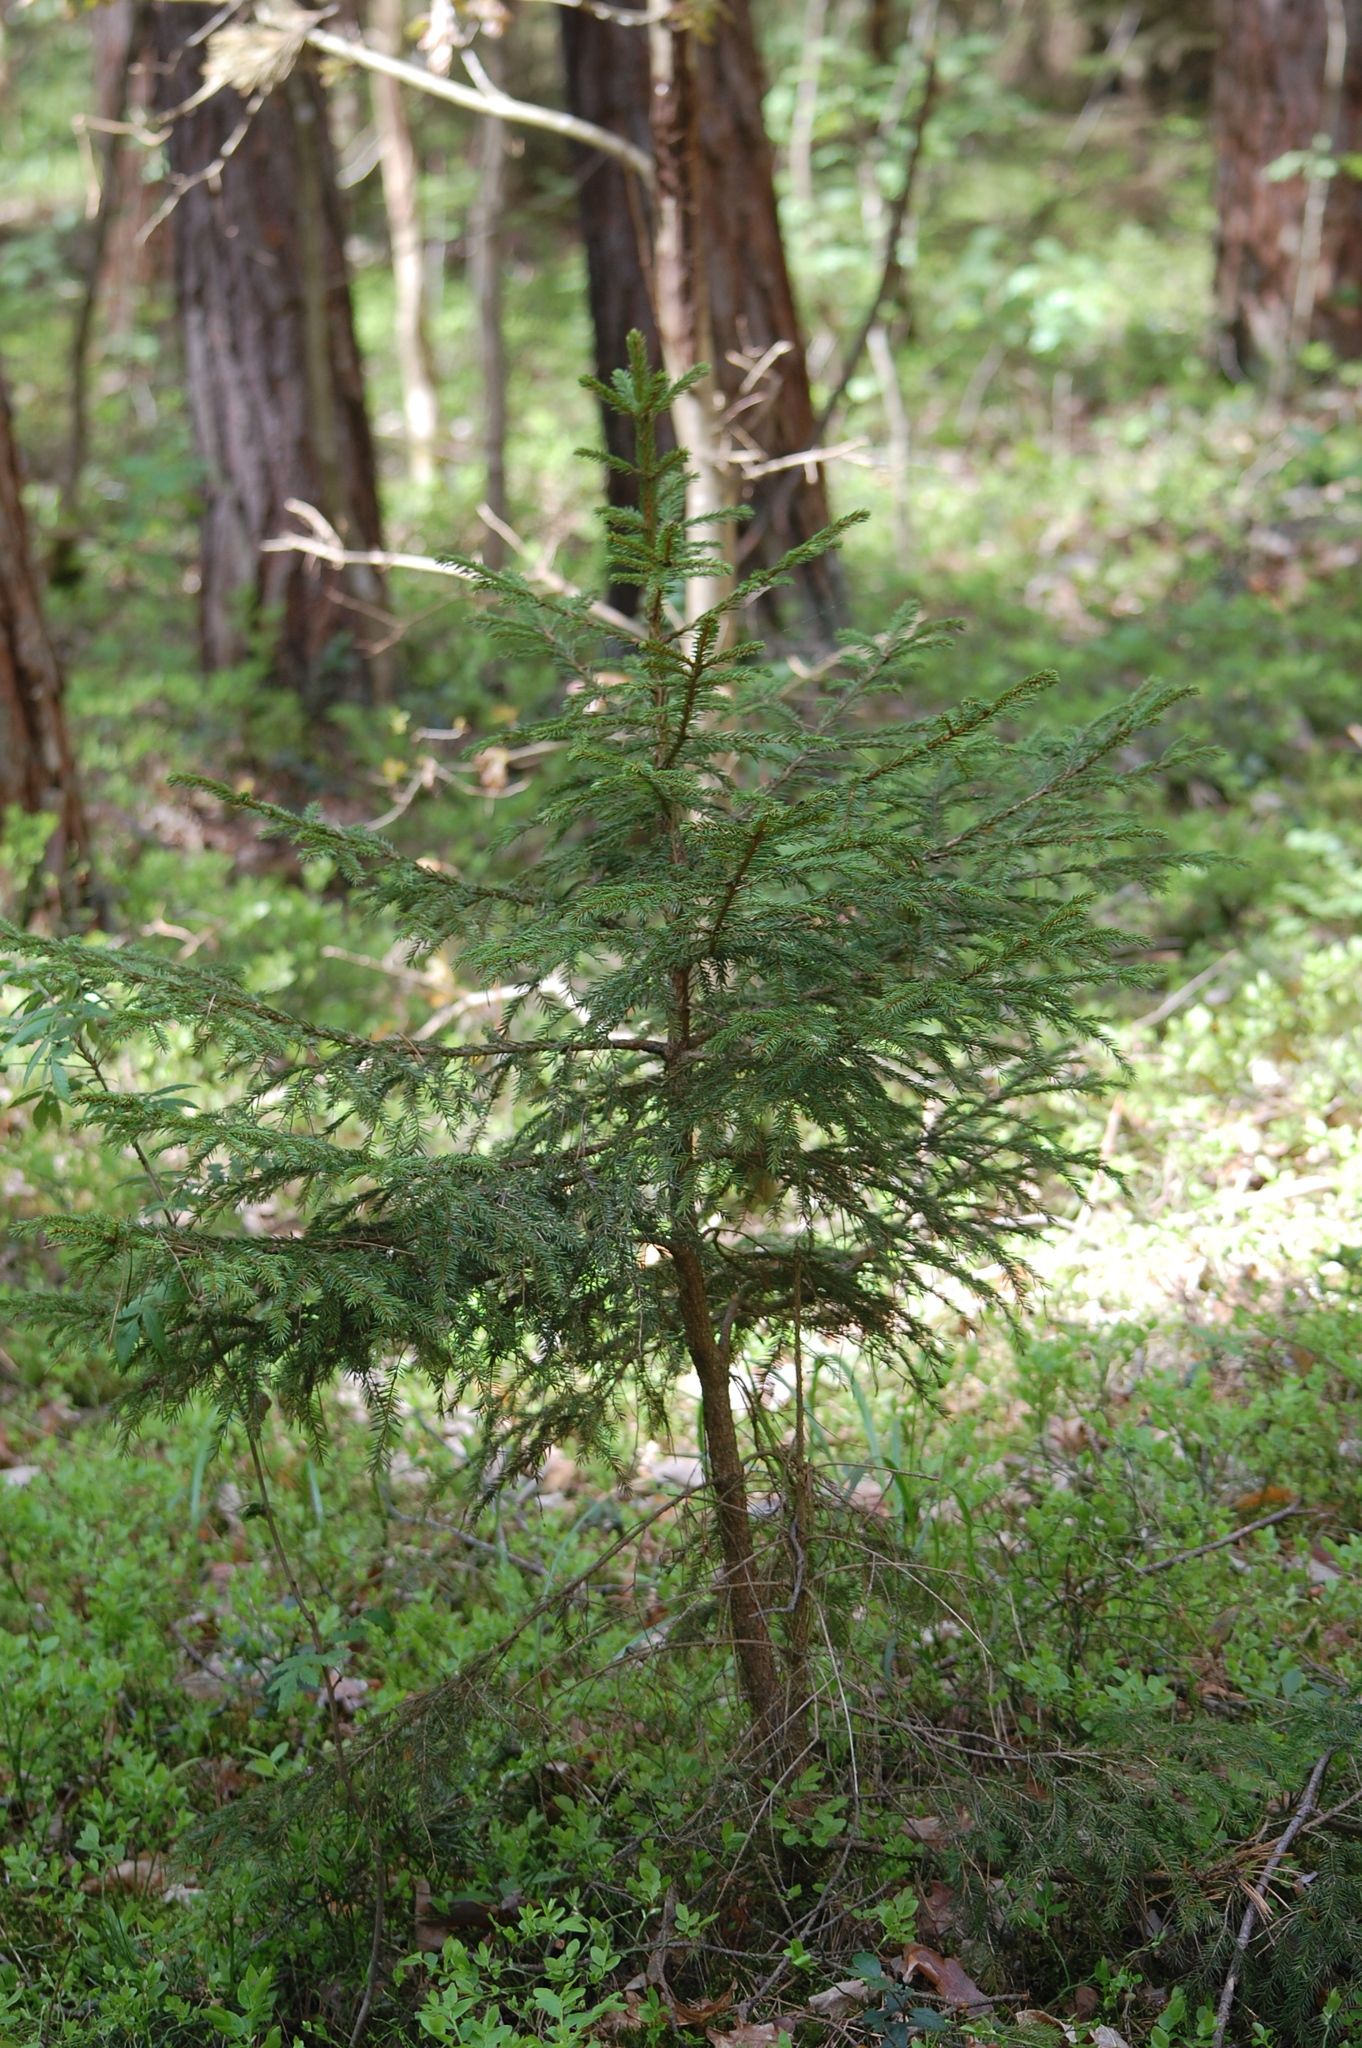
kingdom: Plantae
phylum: Tracheophyta
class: Pinopsida
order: Pinales
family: Pinaceae
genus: Picea
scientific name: Picea abies
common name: Norway spruce
